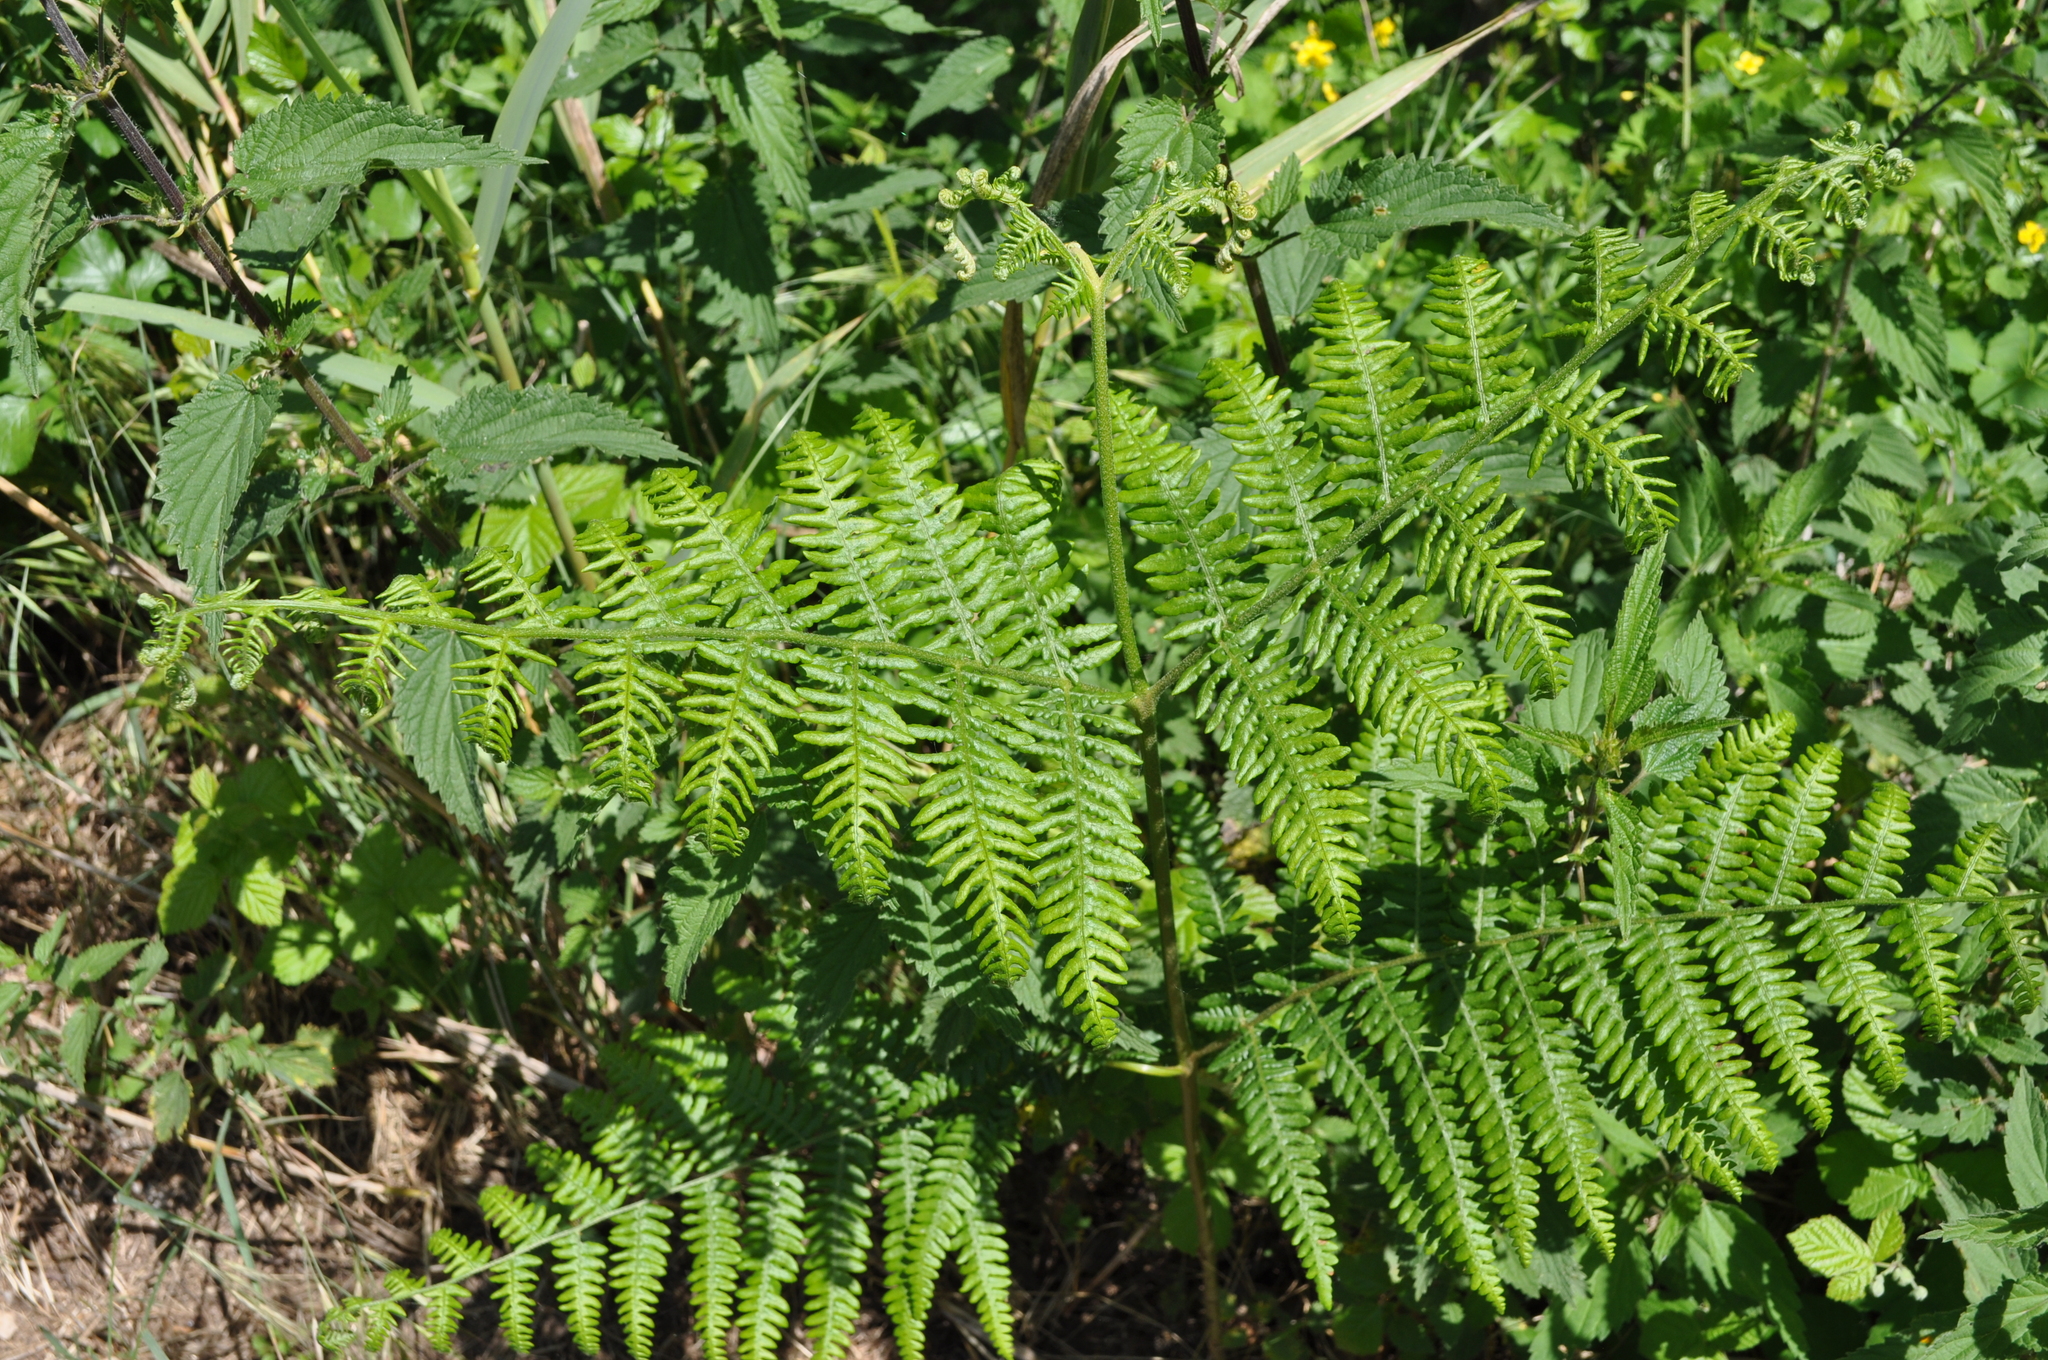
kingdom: Plantae
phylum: Tracheophyta
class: Polypodiopsida
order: Polypodiales
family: Dennstaedtiaceae
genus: Pteridium
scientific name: Pteridium aquilinum
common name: Bracken
